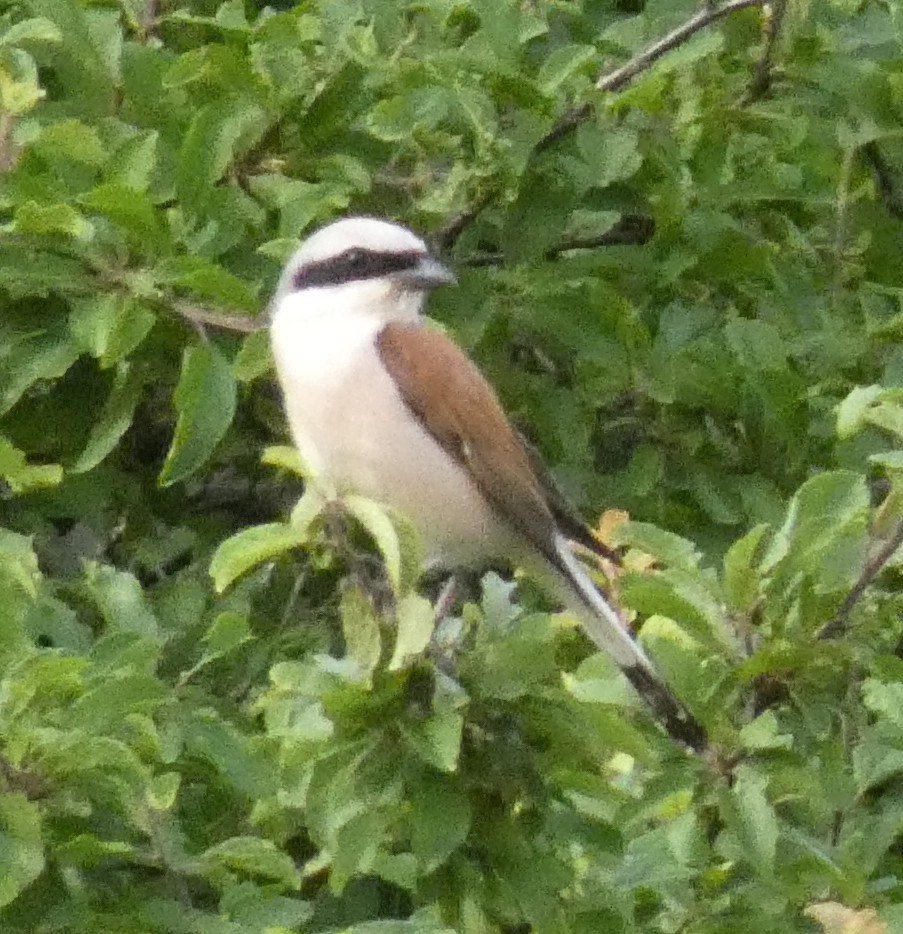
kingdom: Animalia
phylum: Chordata
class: Aves
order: Passeriformes
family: Laniidae
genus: Lanius
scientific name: Lanius collurio
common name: Red-backed shrike
